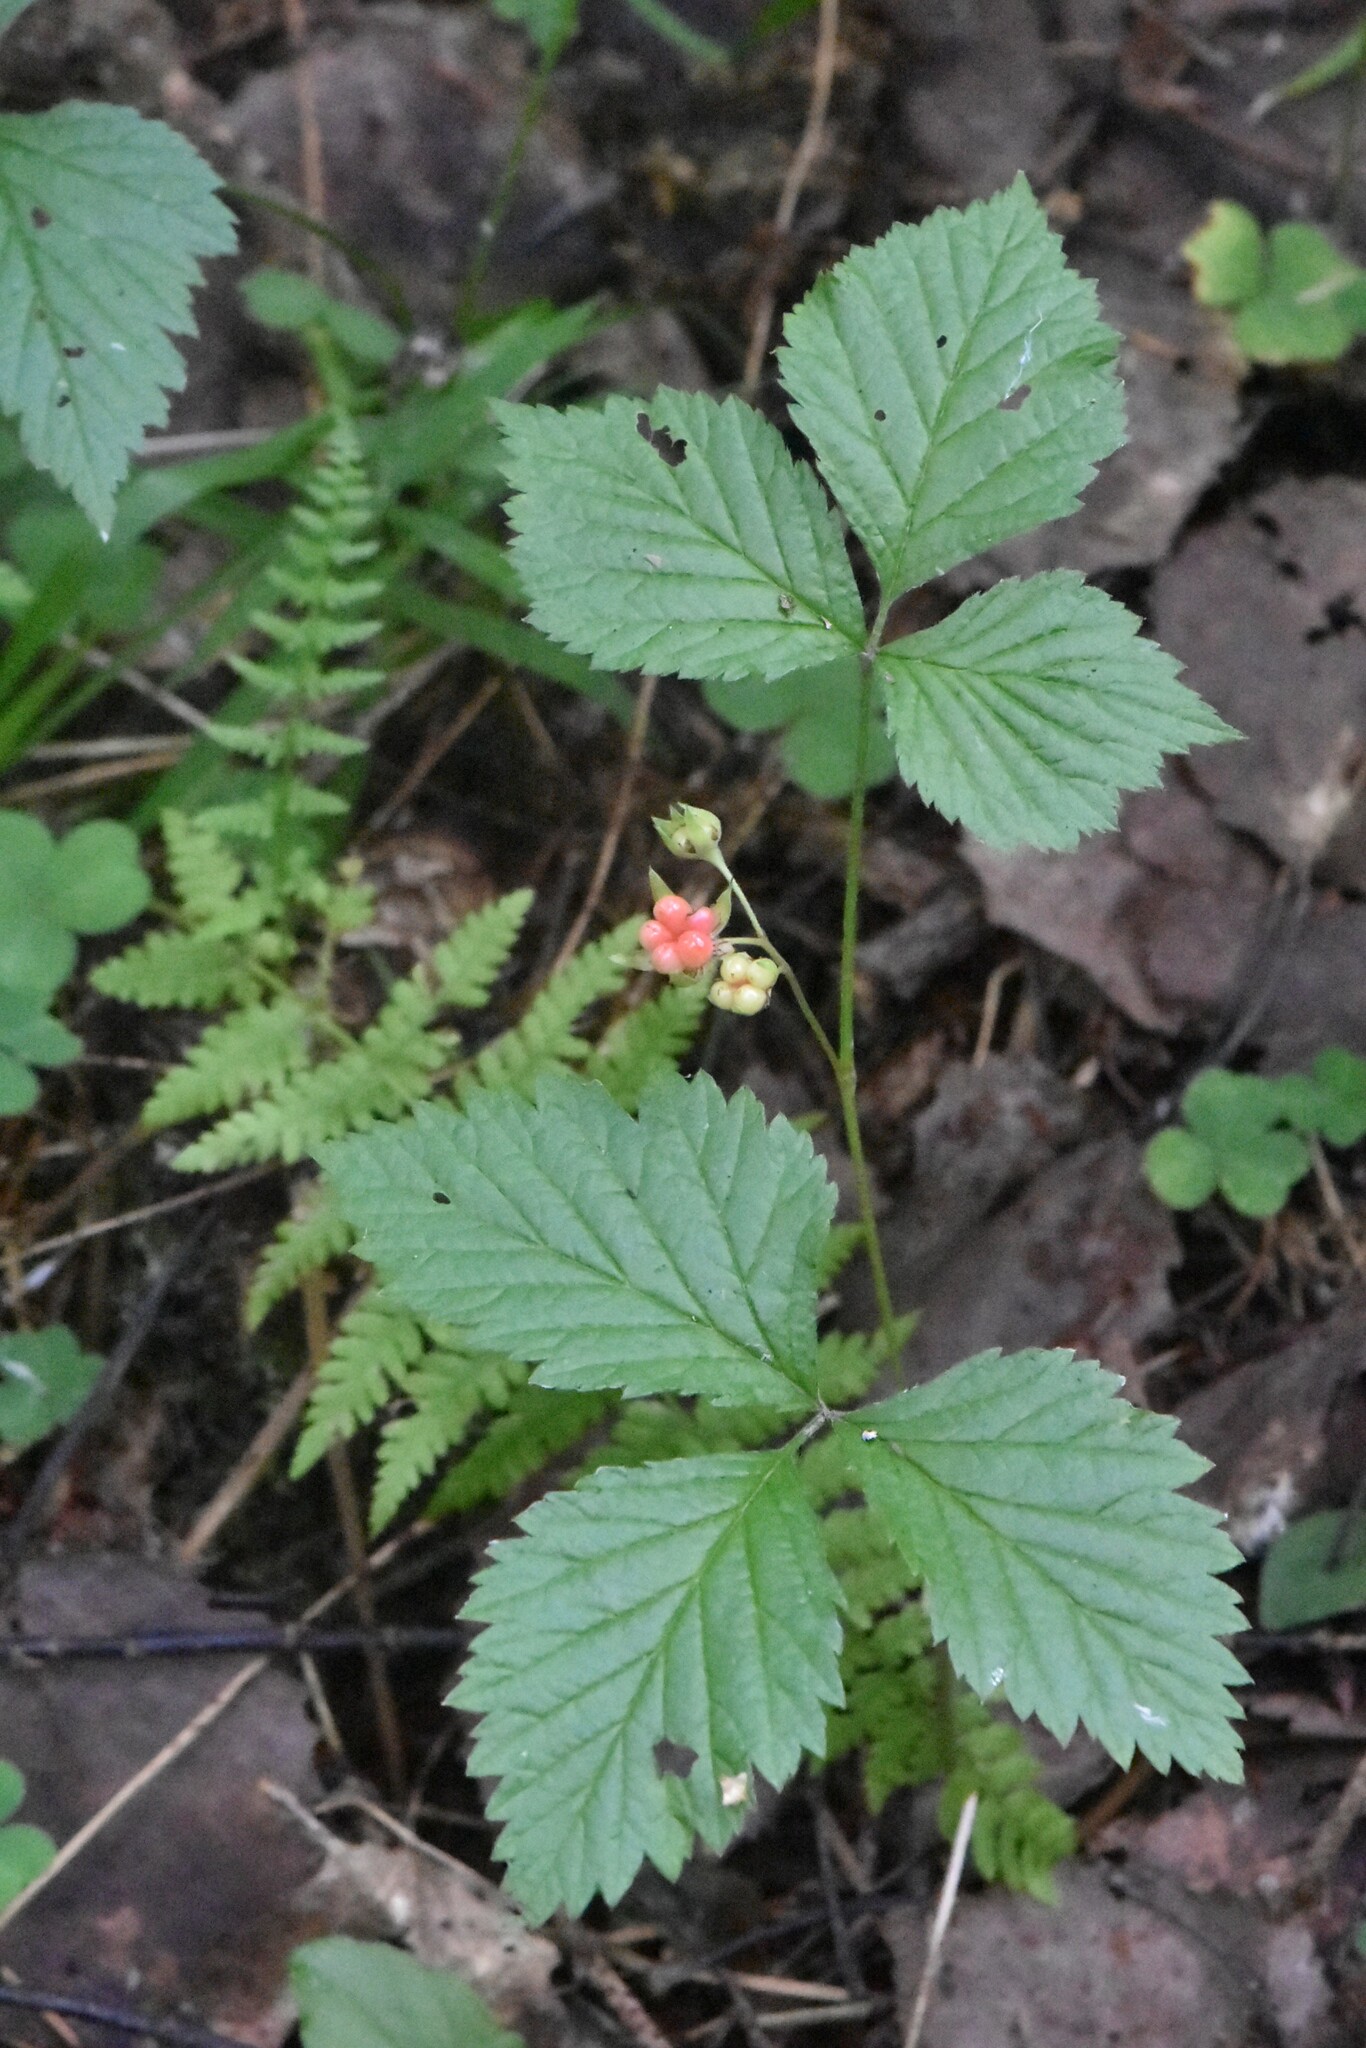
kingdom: Plantae
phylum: Tracheophyta
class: Magnoliopsida
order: Rosales
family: Rosaceae
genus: Rubus
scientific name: Rubus saxatilis
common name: Stone bramble
